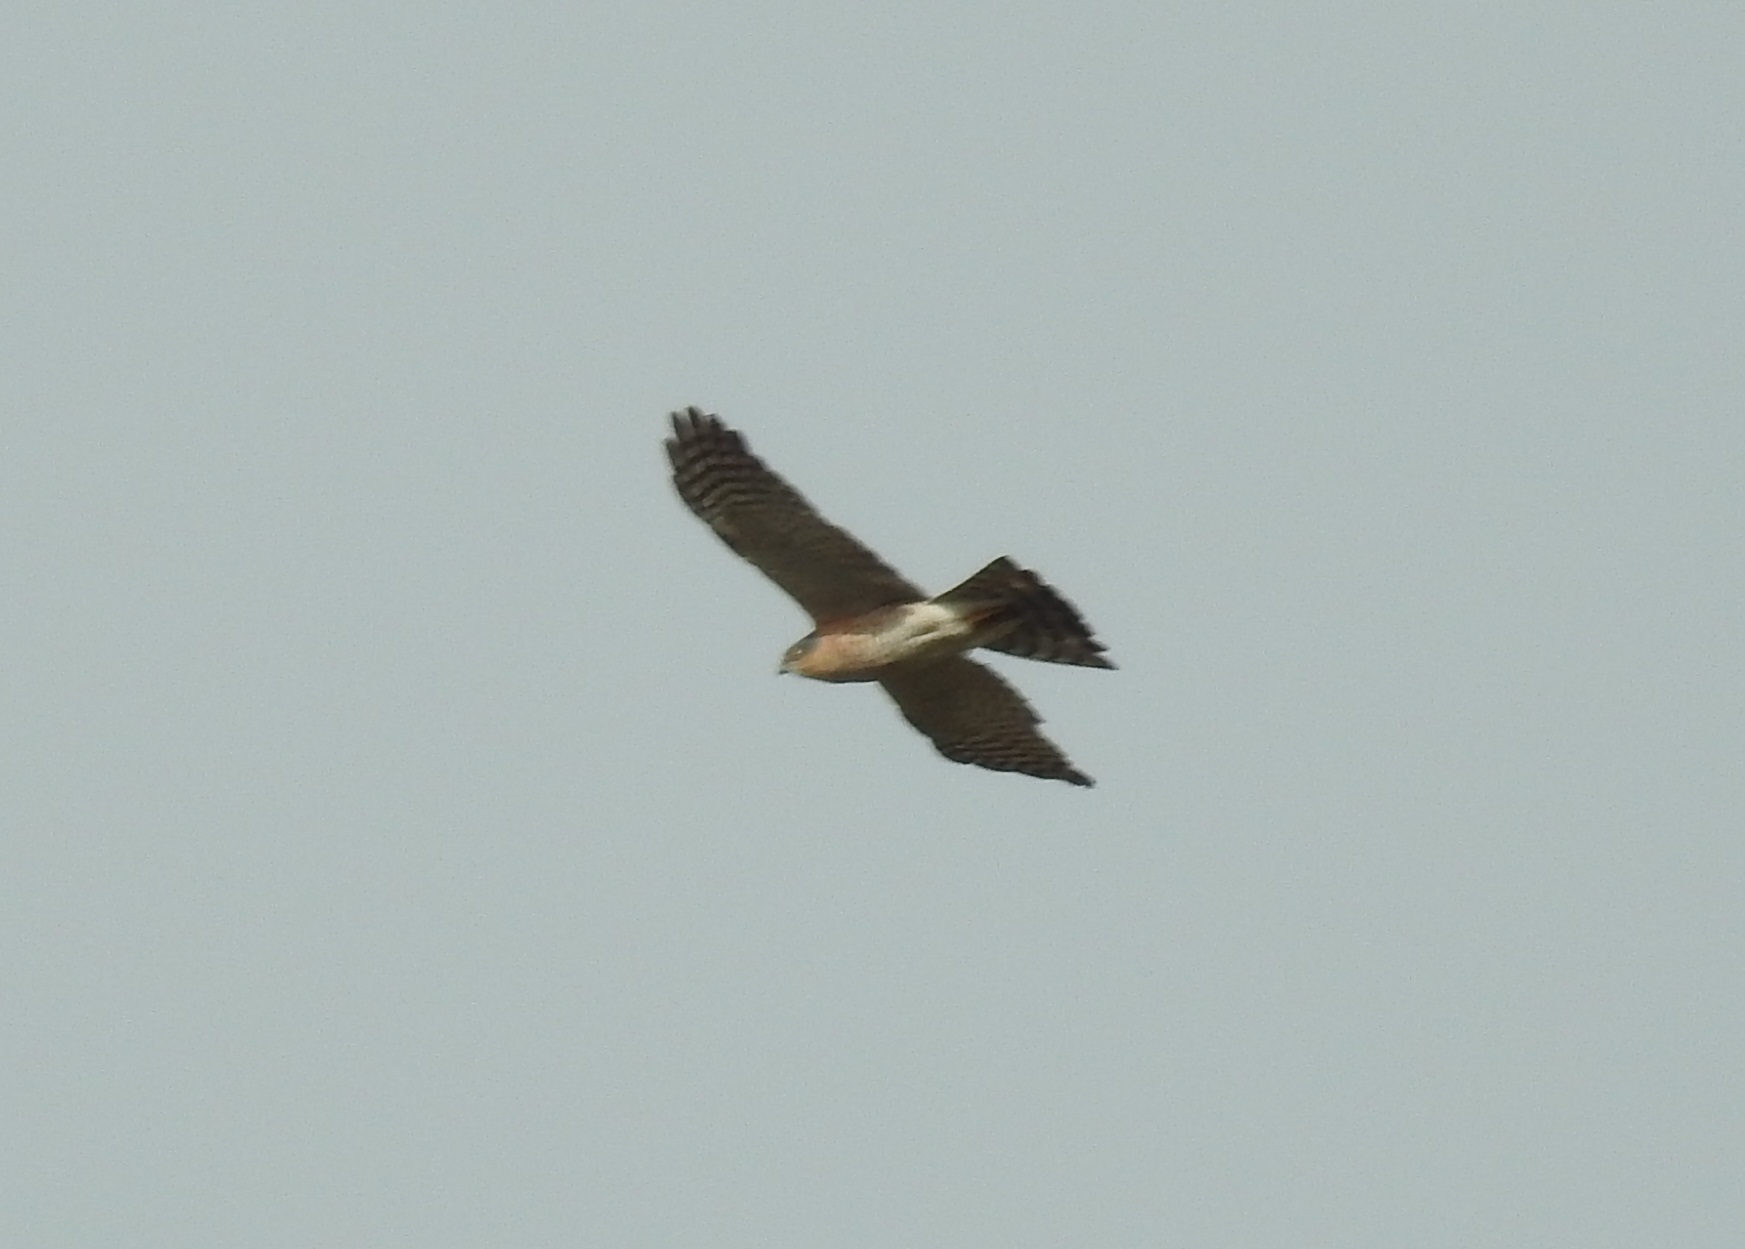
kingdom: Animalia
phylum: Chordata
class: Aves
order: Accipitriformes
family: Accipitridae
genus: Accipiter
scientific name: Accipiter nisus
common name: Eurasian sparrowhawk
